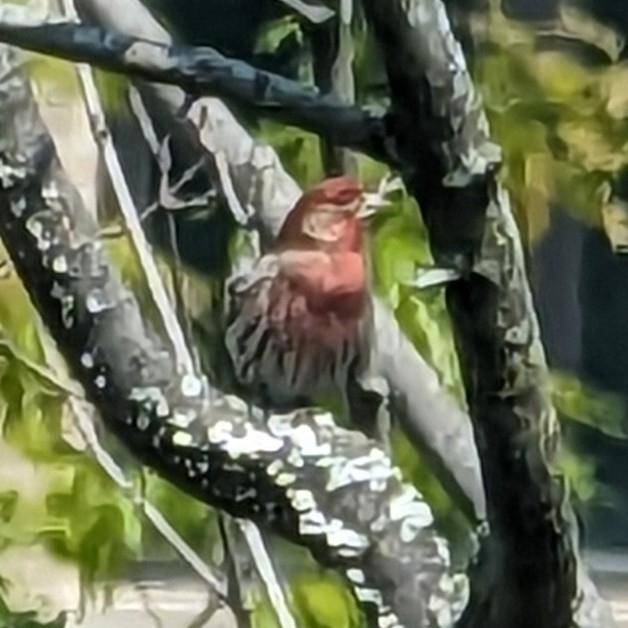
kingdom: Animalia
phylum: Chordata
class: Aves
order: Passeriformes
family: Fringillidae
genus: Haemorhous
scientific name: Haemorhous mexicanus
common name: House finch
